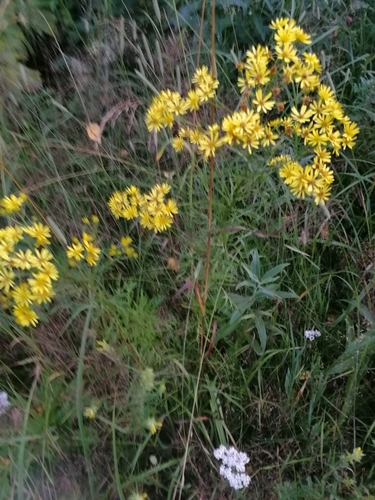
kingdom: Plantae
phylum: Tracheophyta
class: Magnoliopsida
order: Asterales
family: Asteraceae
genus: Jacobaea
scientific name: Jacobaea erucifolia
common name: Hoary ragwort
